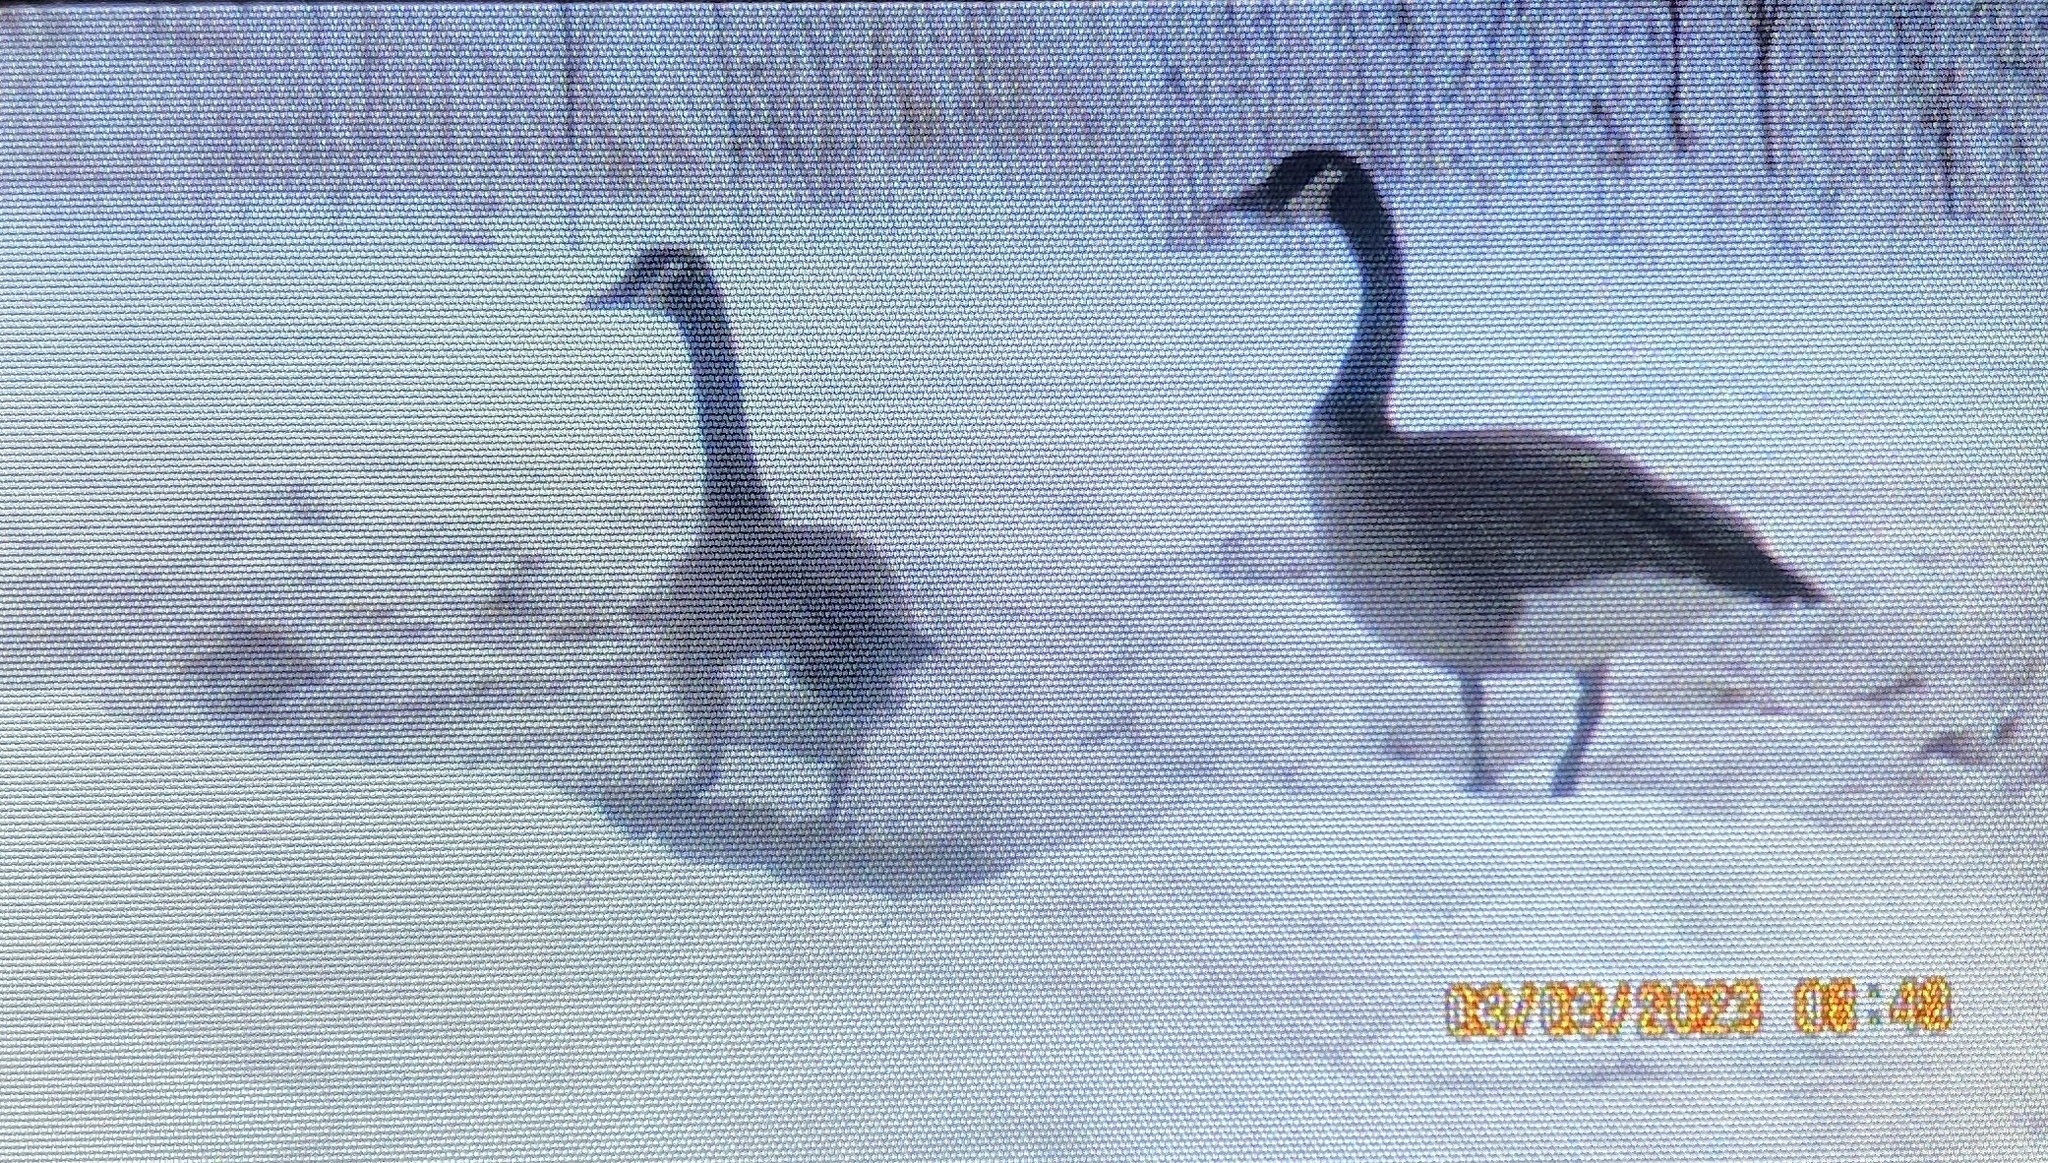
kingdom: Animalia
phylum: Chordata
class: Aves
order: Anseriformes
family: Anatidae
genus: Branta
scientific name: Branta canadensis
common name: Canada goose
